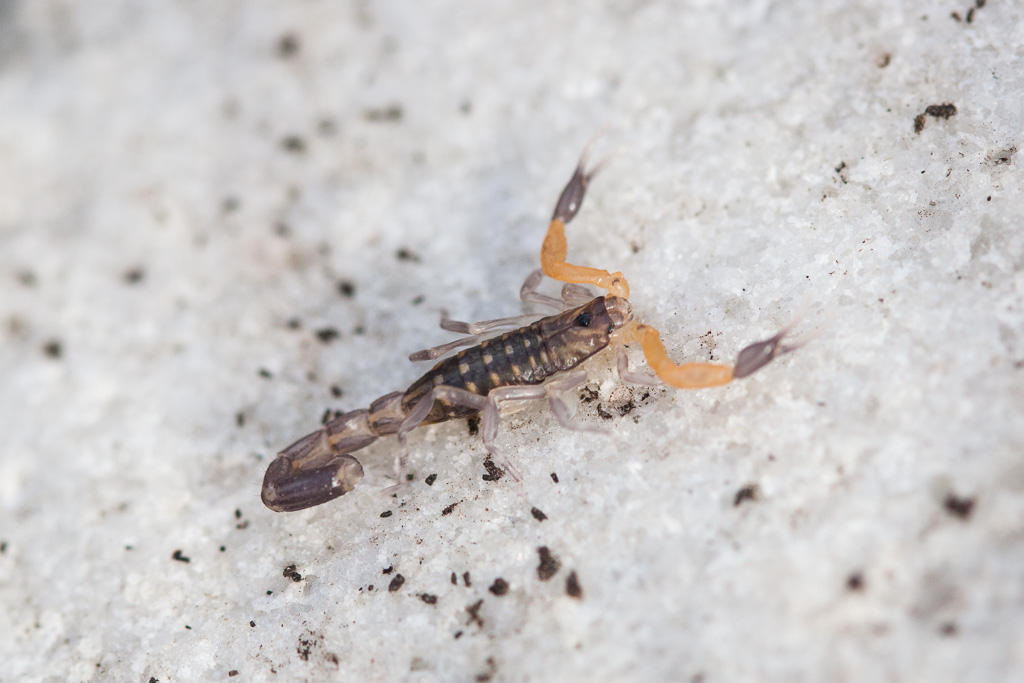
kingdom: Animalia
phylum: Arthropoda
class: Arachnida
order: Scorpiones
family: Buthidae
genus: Uroplectes
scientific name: Uroplectes lineatus
